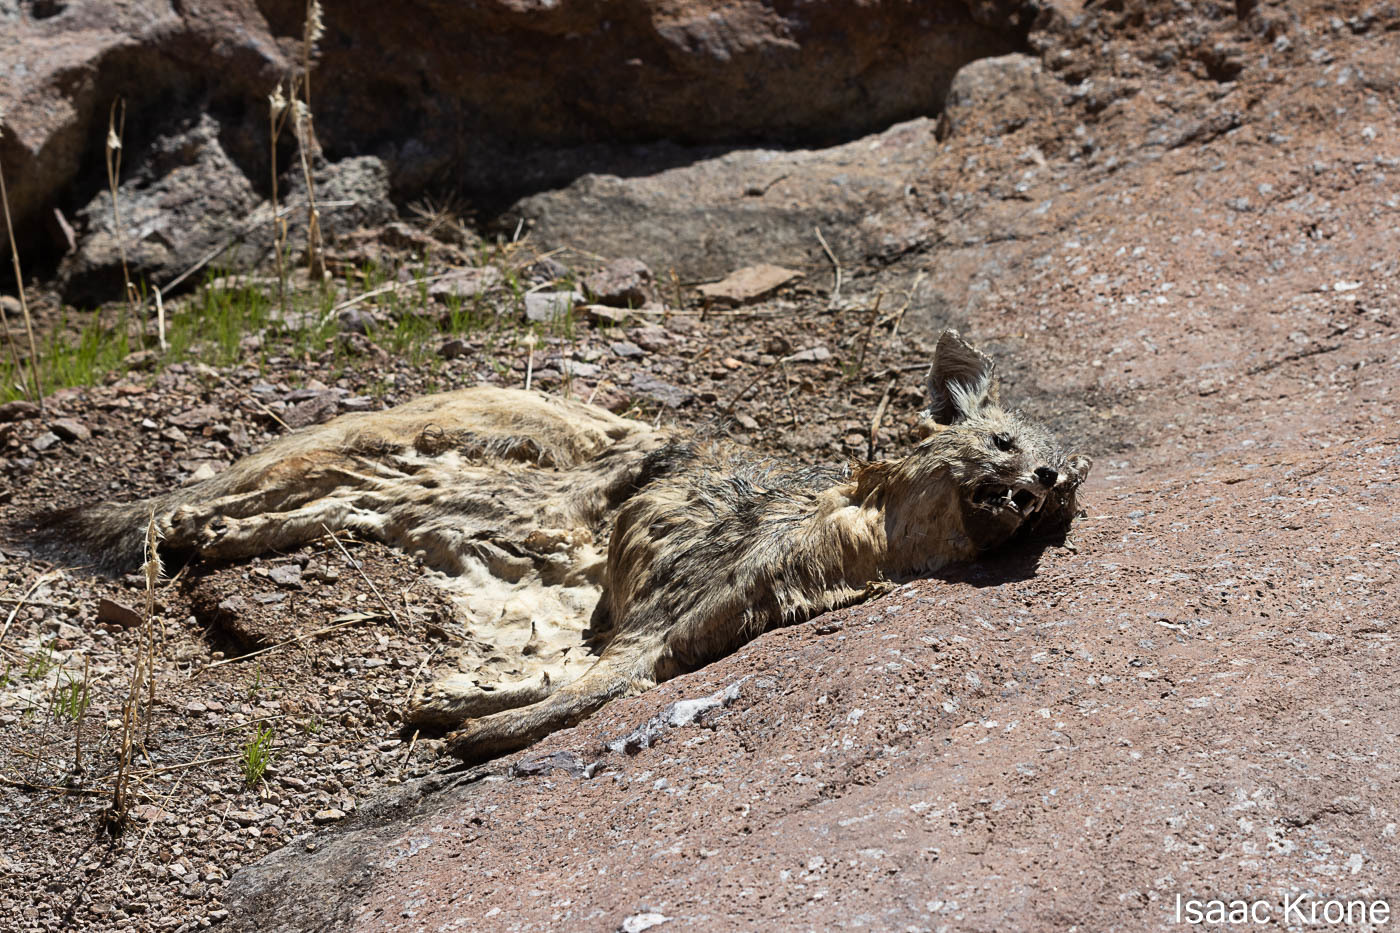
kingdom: Animalia
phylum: Chordata
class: Mammalia
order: Carnivora
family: Canidae
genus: Urocyon
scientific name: Urocyon cinereoargenteus
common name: Gray fox
